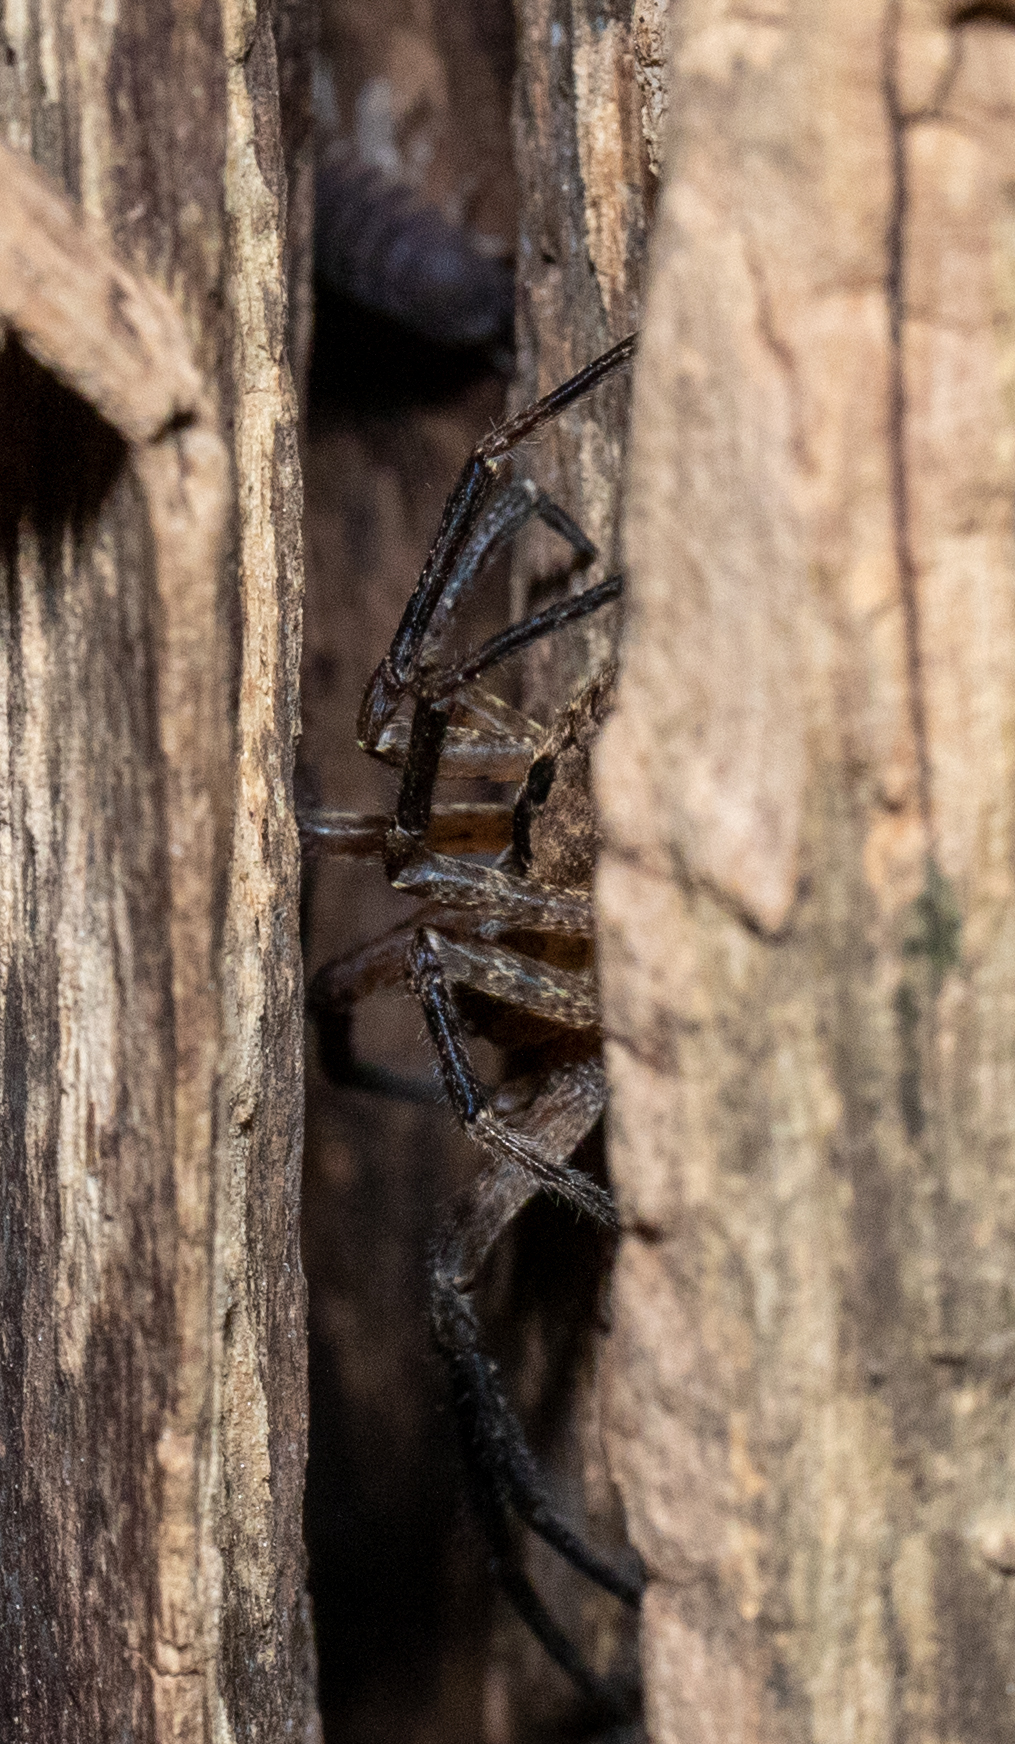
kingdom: Animalia
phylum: Arthropoda
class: Arachnida
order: Araneae
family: Zoropsidae
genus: Zoropsis
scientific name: Zoropsis spinimana
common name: Zoropsid spider
